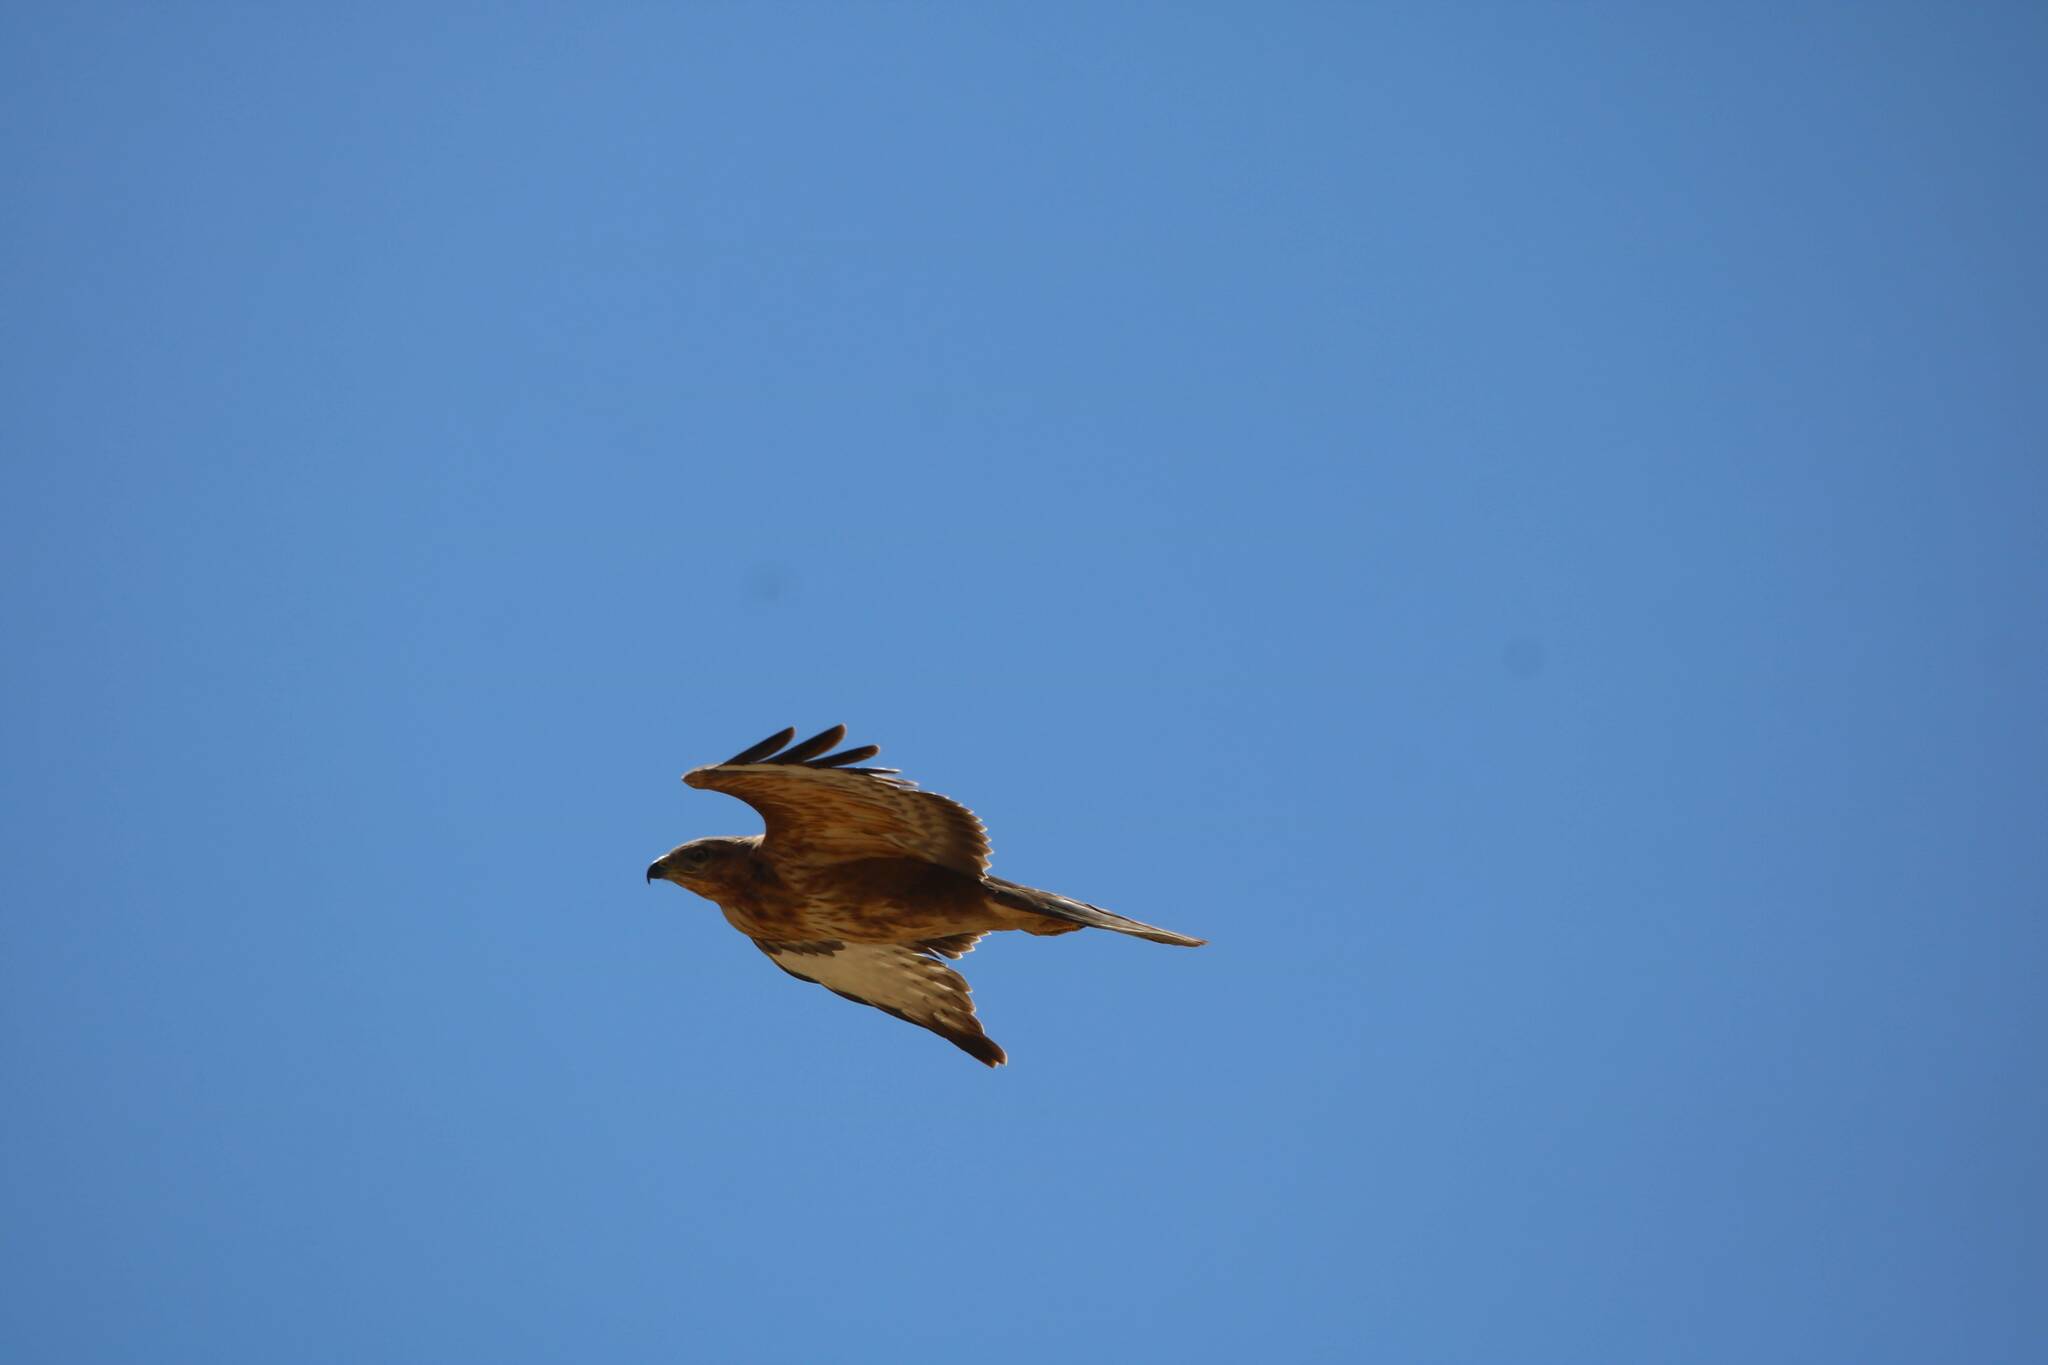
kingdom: Animalia
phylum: Chordata
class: Aves
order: Accipitriformes
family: Accipitridae
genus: Buteo
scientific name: Buteo rufinus
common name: Long-legged buzzard
